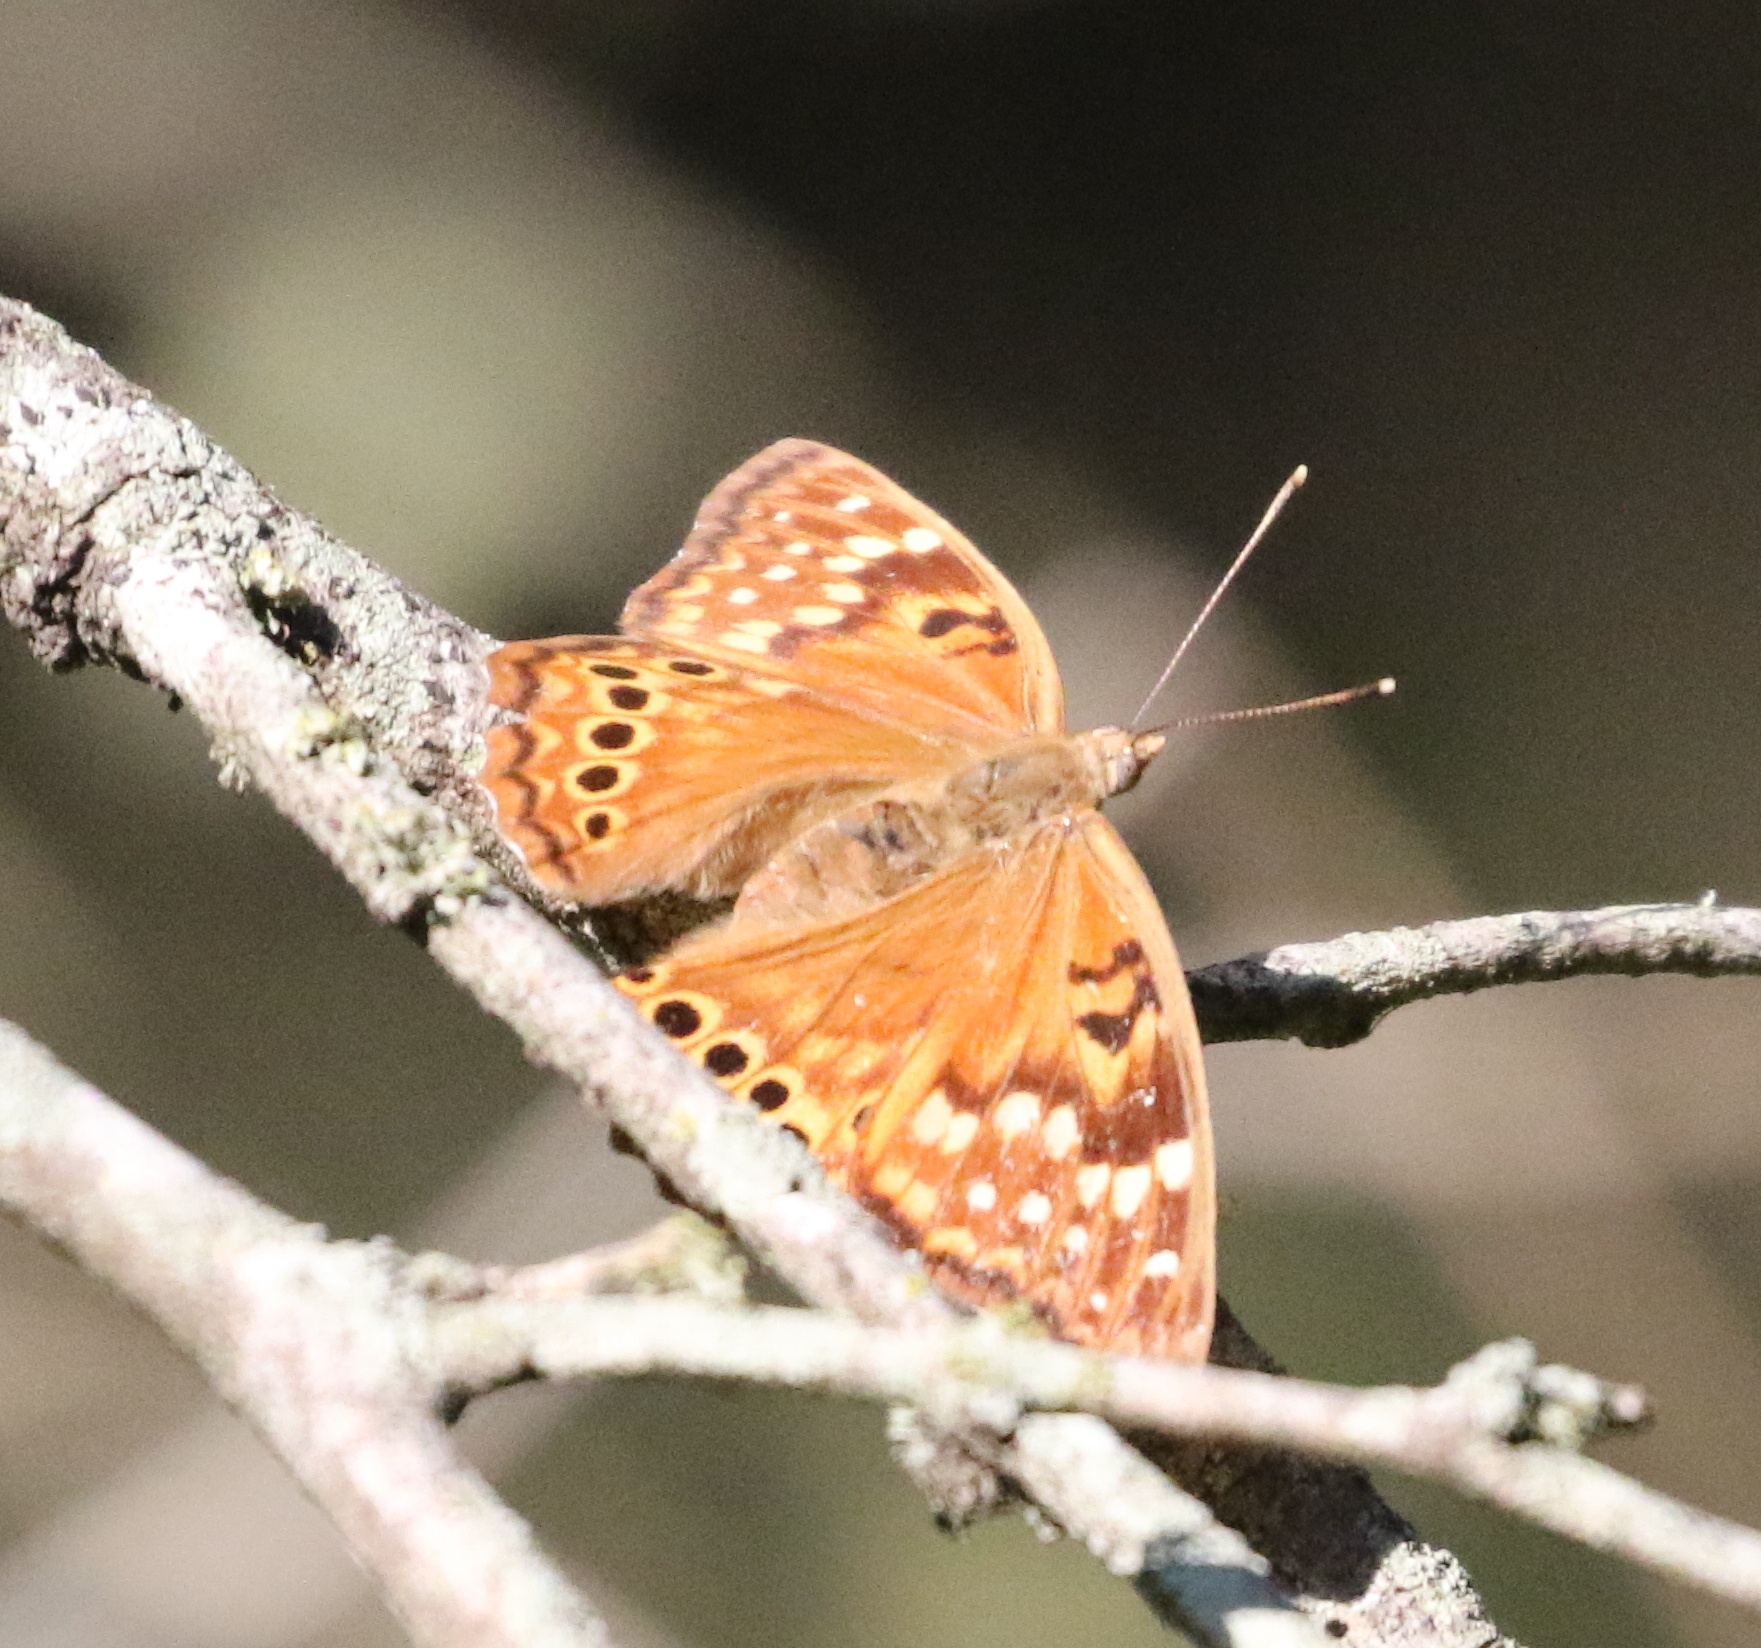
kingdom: Animalia
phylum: Arthropoda
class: Insecta
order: Lepidoptera
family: Nymphalidae
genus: Asterocampa
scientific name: Asterocampa clyton
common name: Tawny emperor
